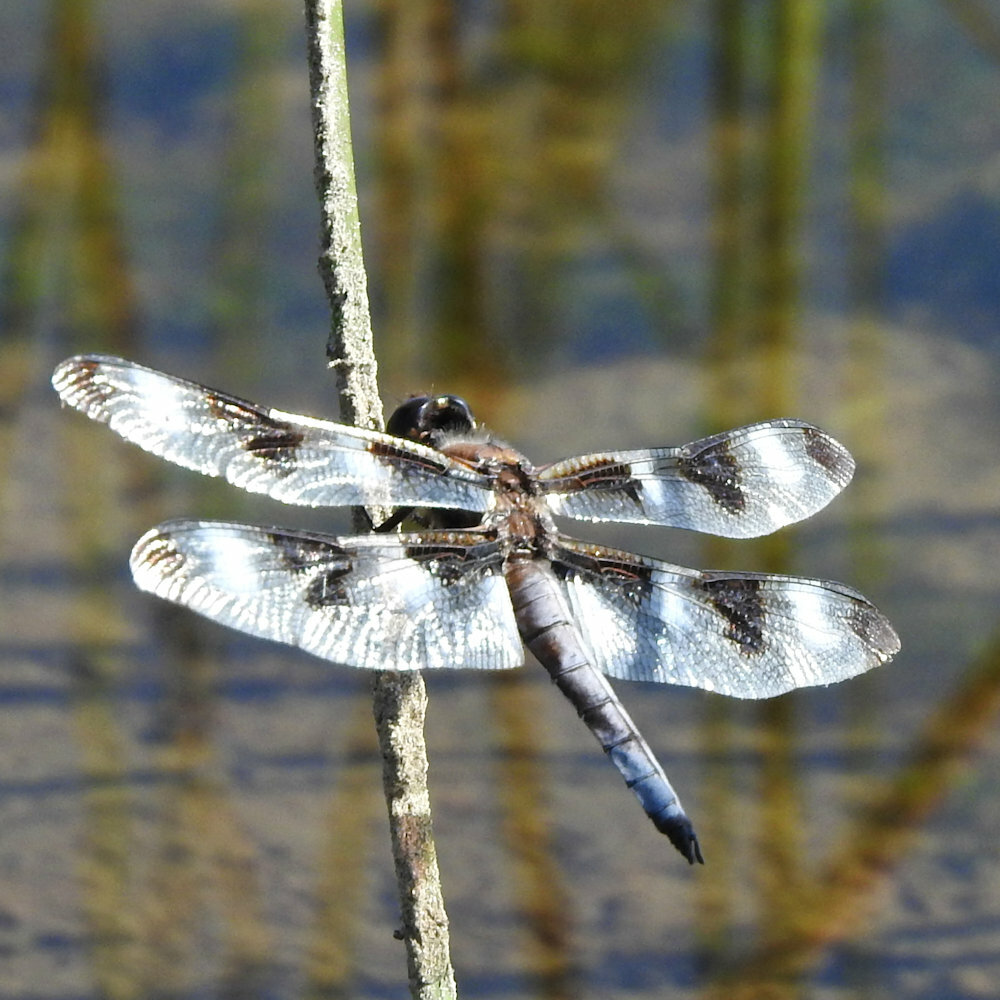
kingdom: Animalia
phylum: Arthropoda
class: Insecta
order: Odonata
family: Libellulidae
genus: Libellula
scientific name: Libellula pulchella
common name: Twelve-spotted skimmer
